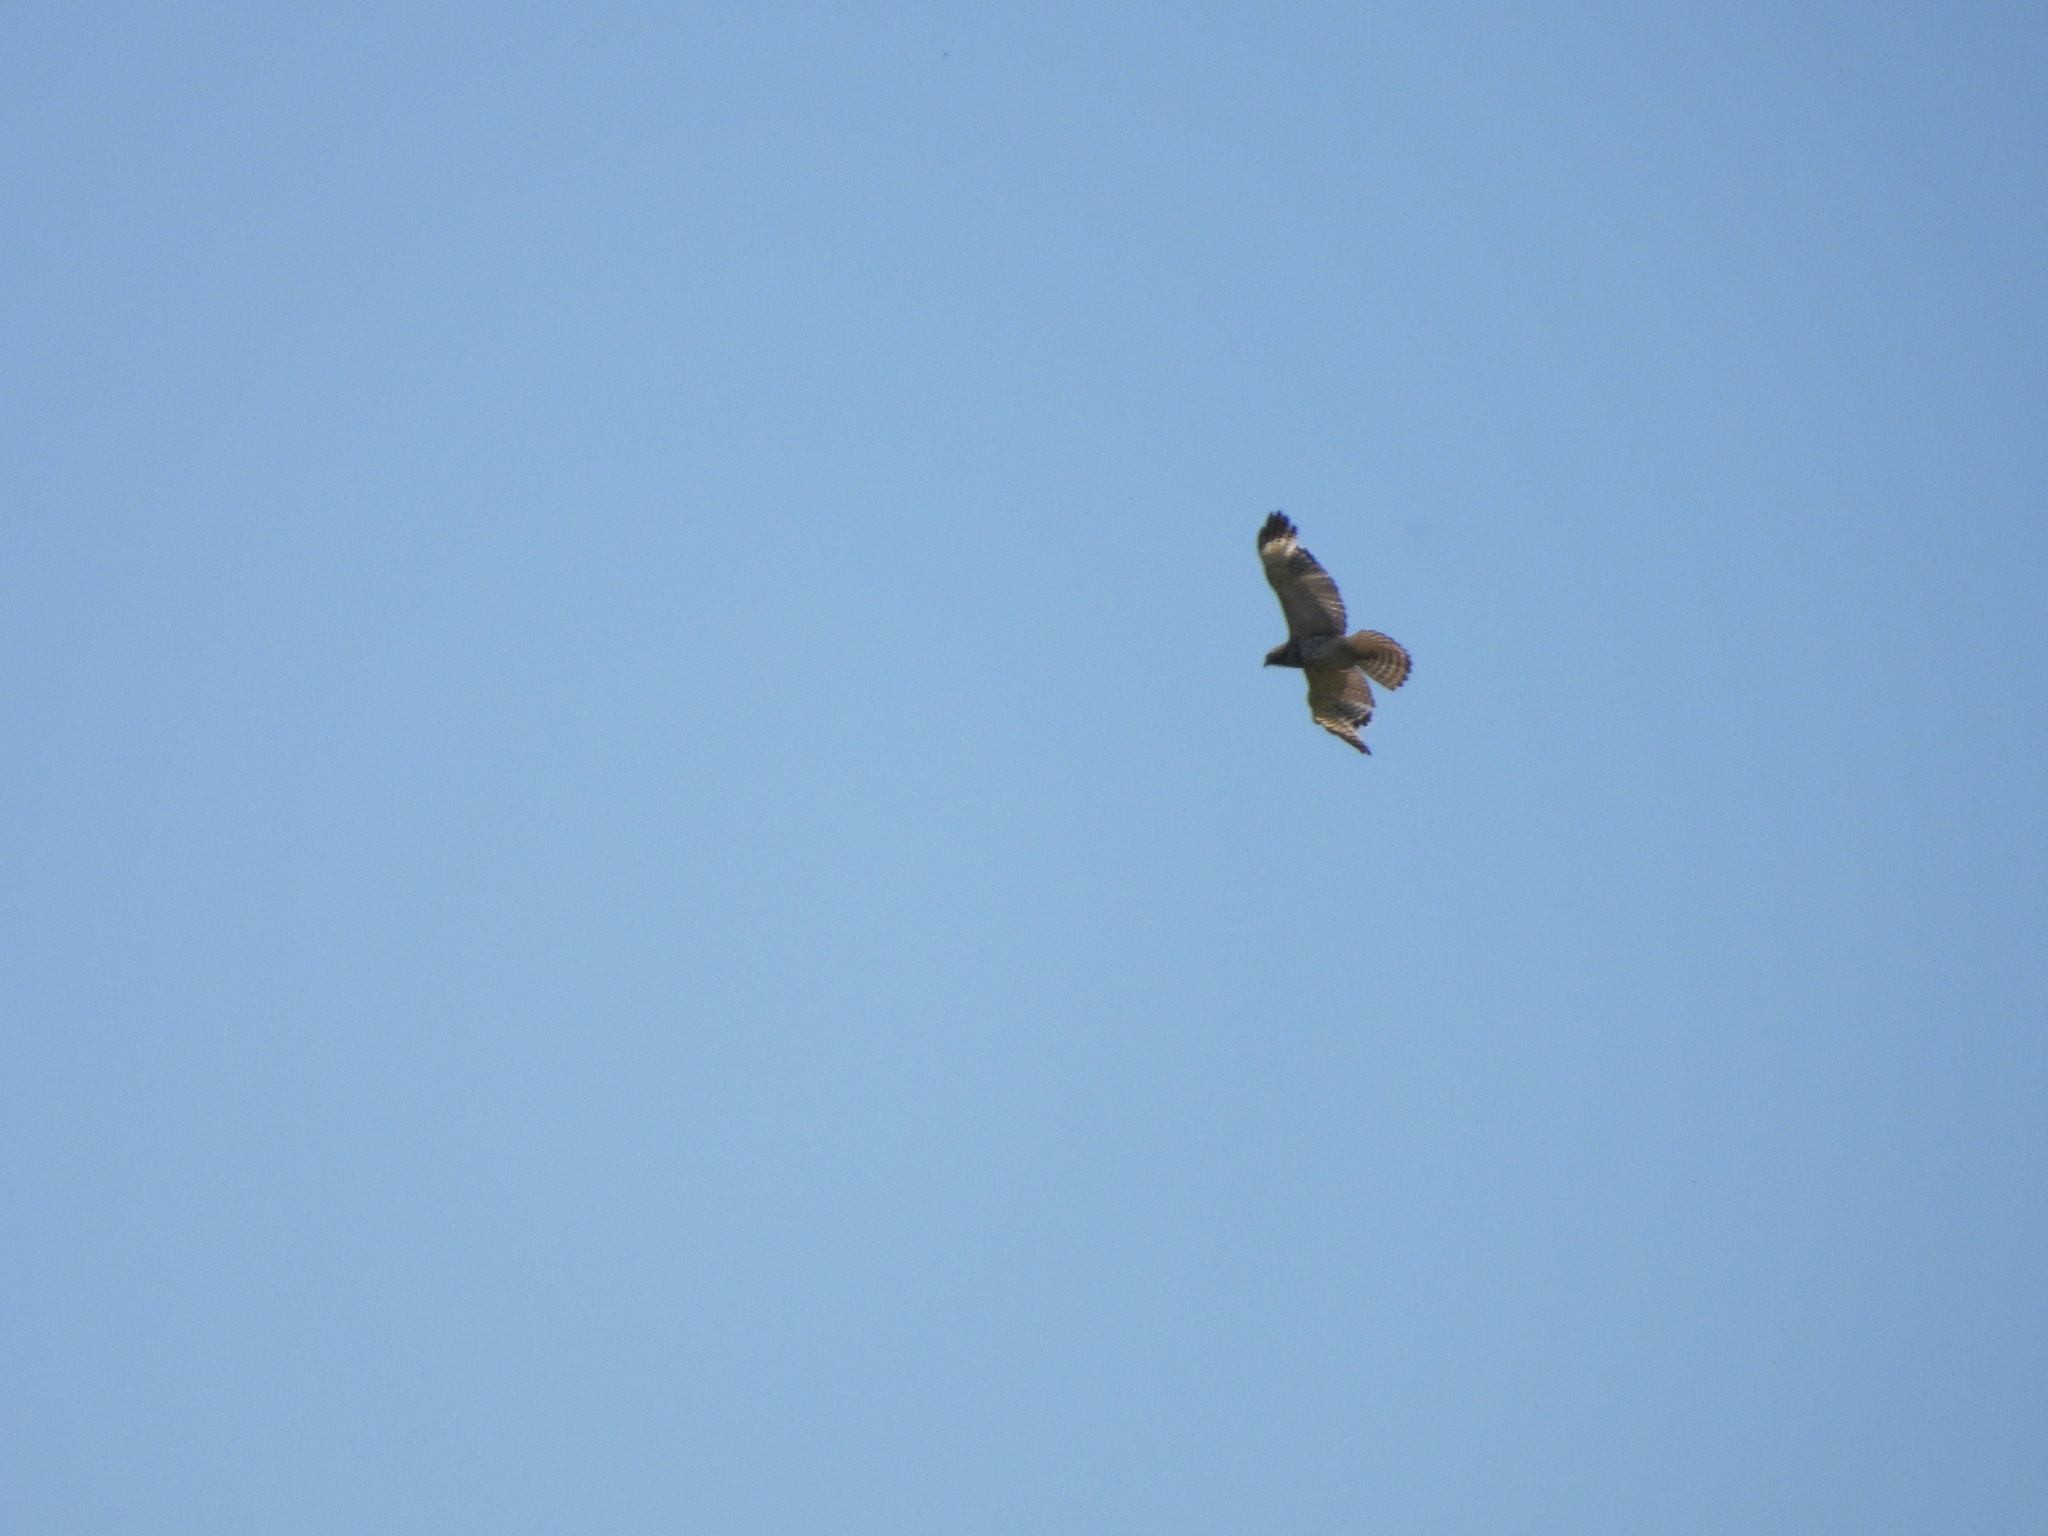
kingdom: Animalia
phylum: Chordata
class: Aves
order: Accipitriformes
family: Accipitridae
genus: Buteo
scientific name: Buteo lineatus
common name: Red-shouldered hawk
